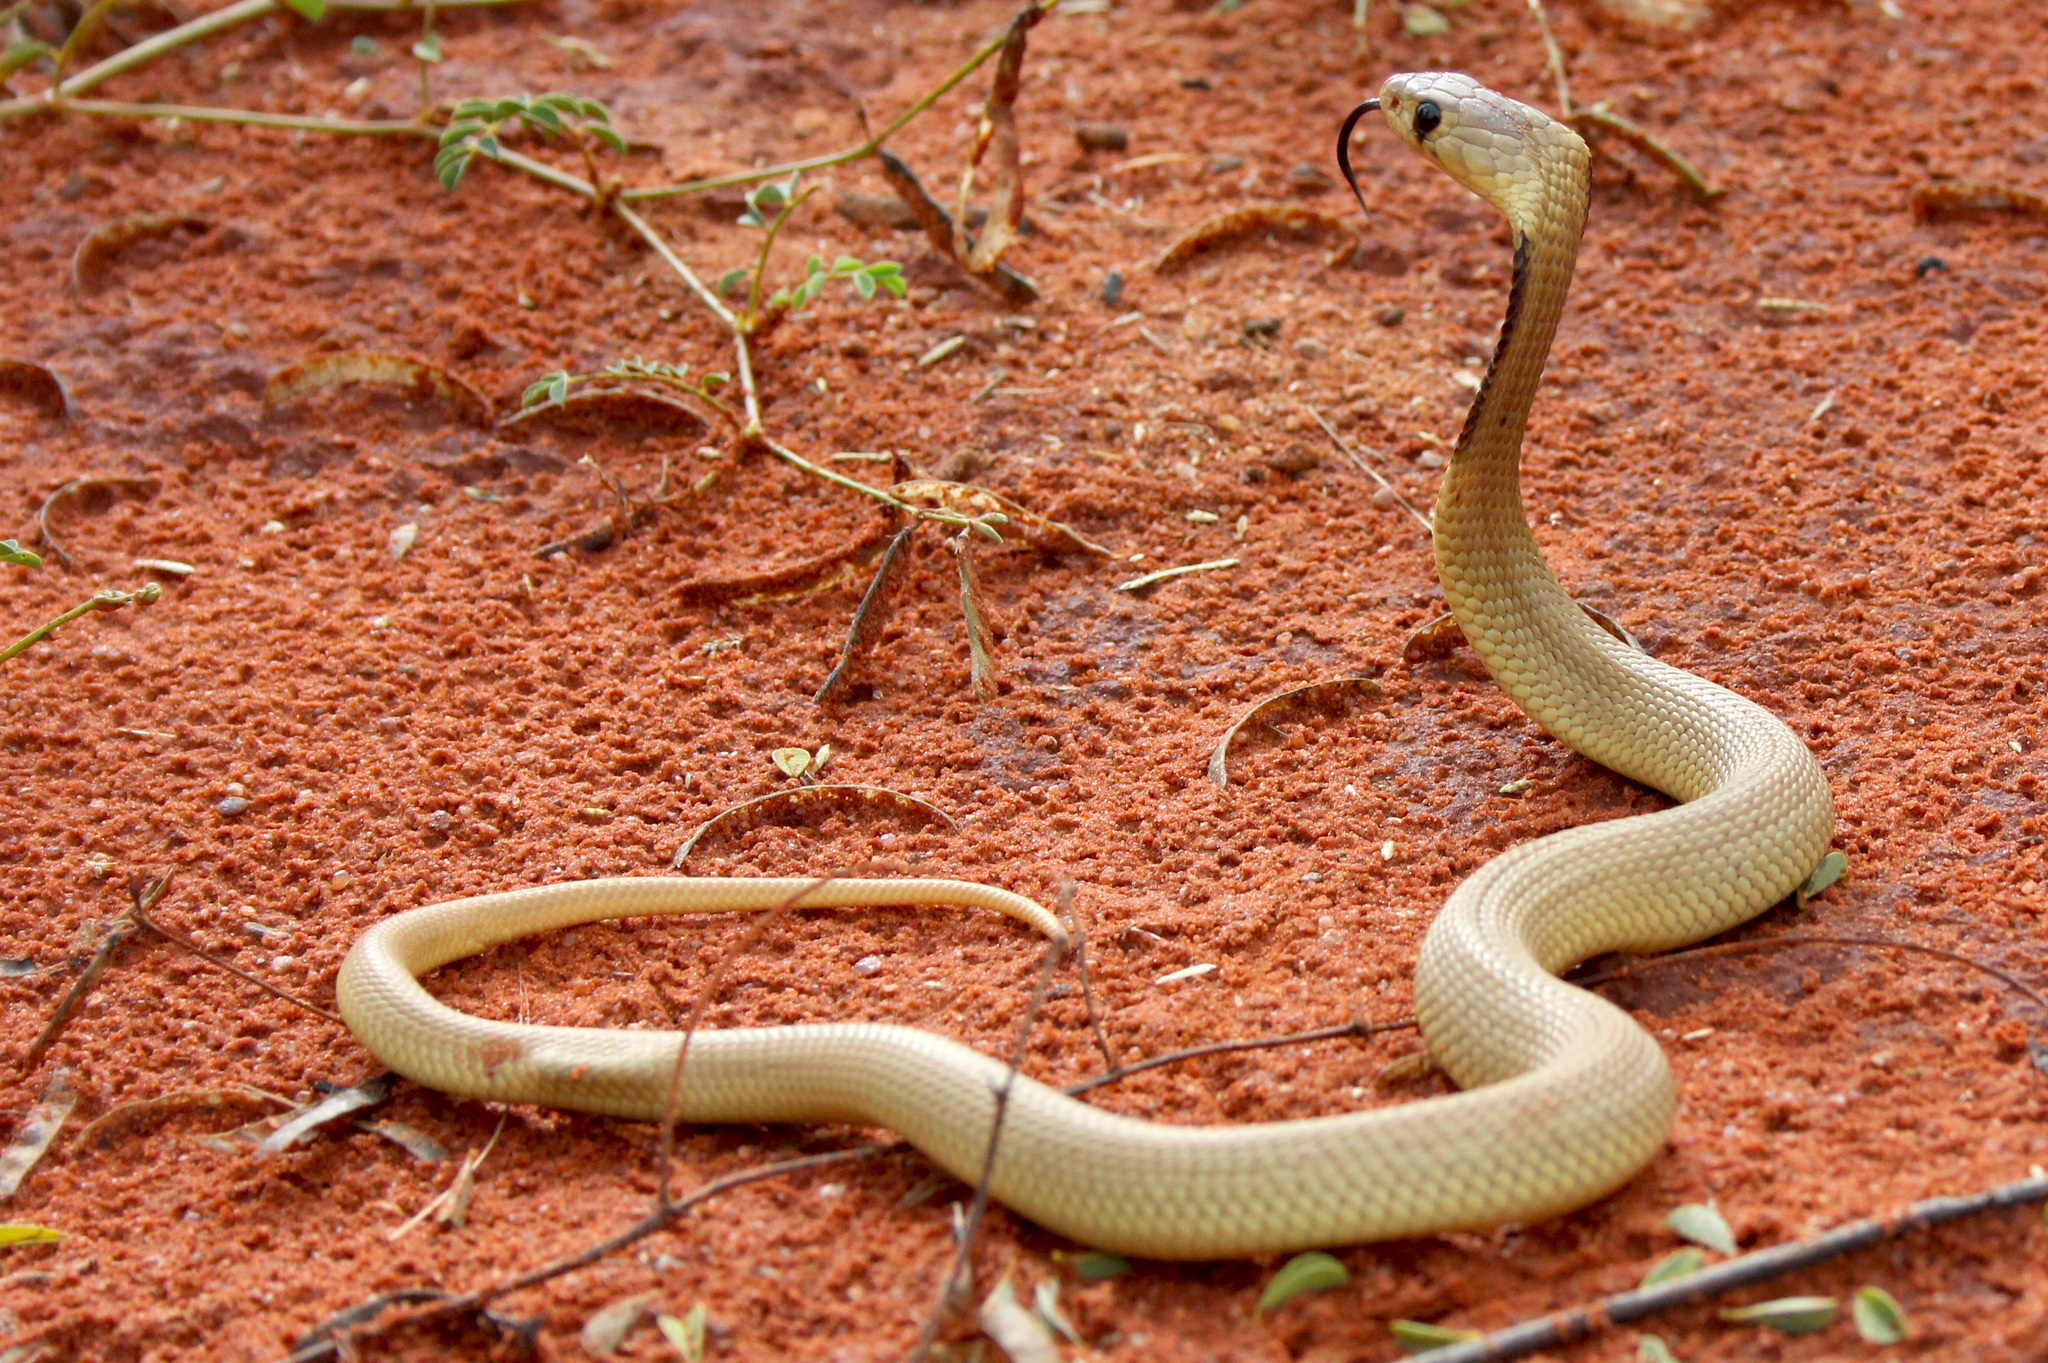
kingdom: Animalia
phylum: Chordata
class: Squamata
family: Elapidae
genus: Naja
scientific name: Naja nivea
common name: Cape cobra
